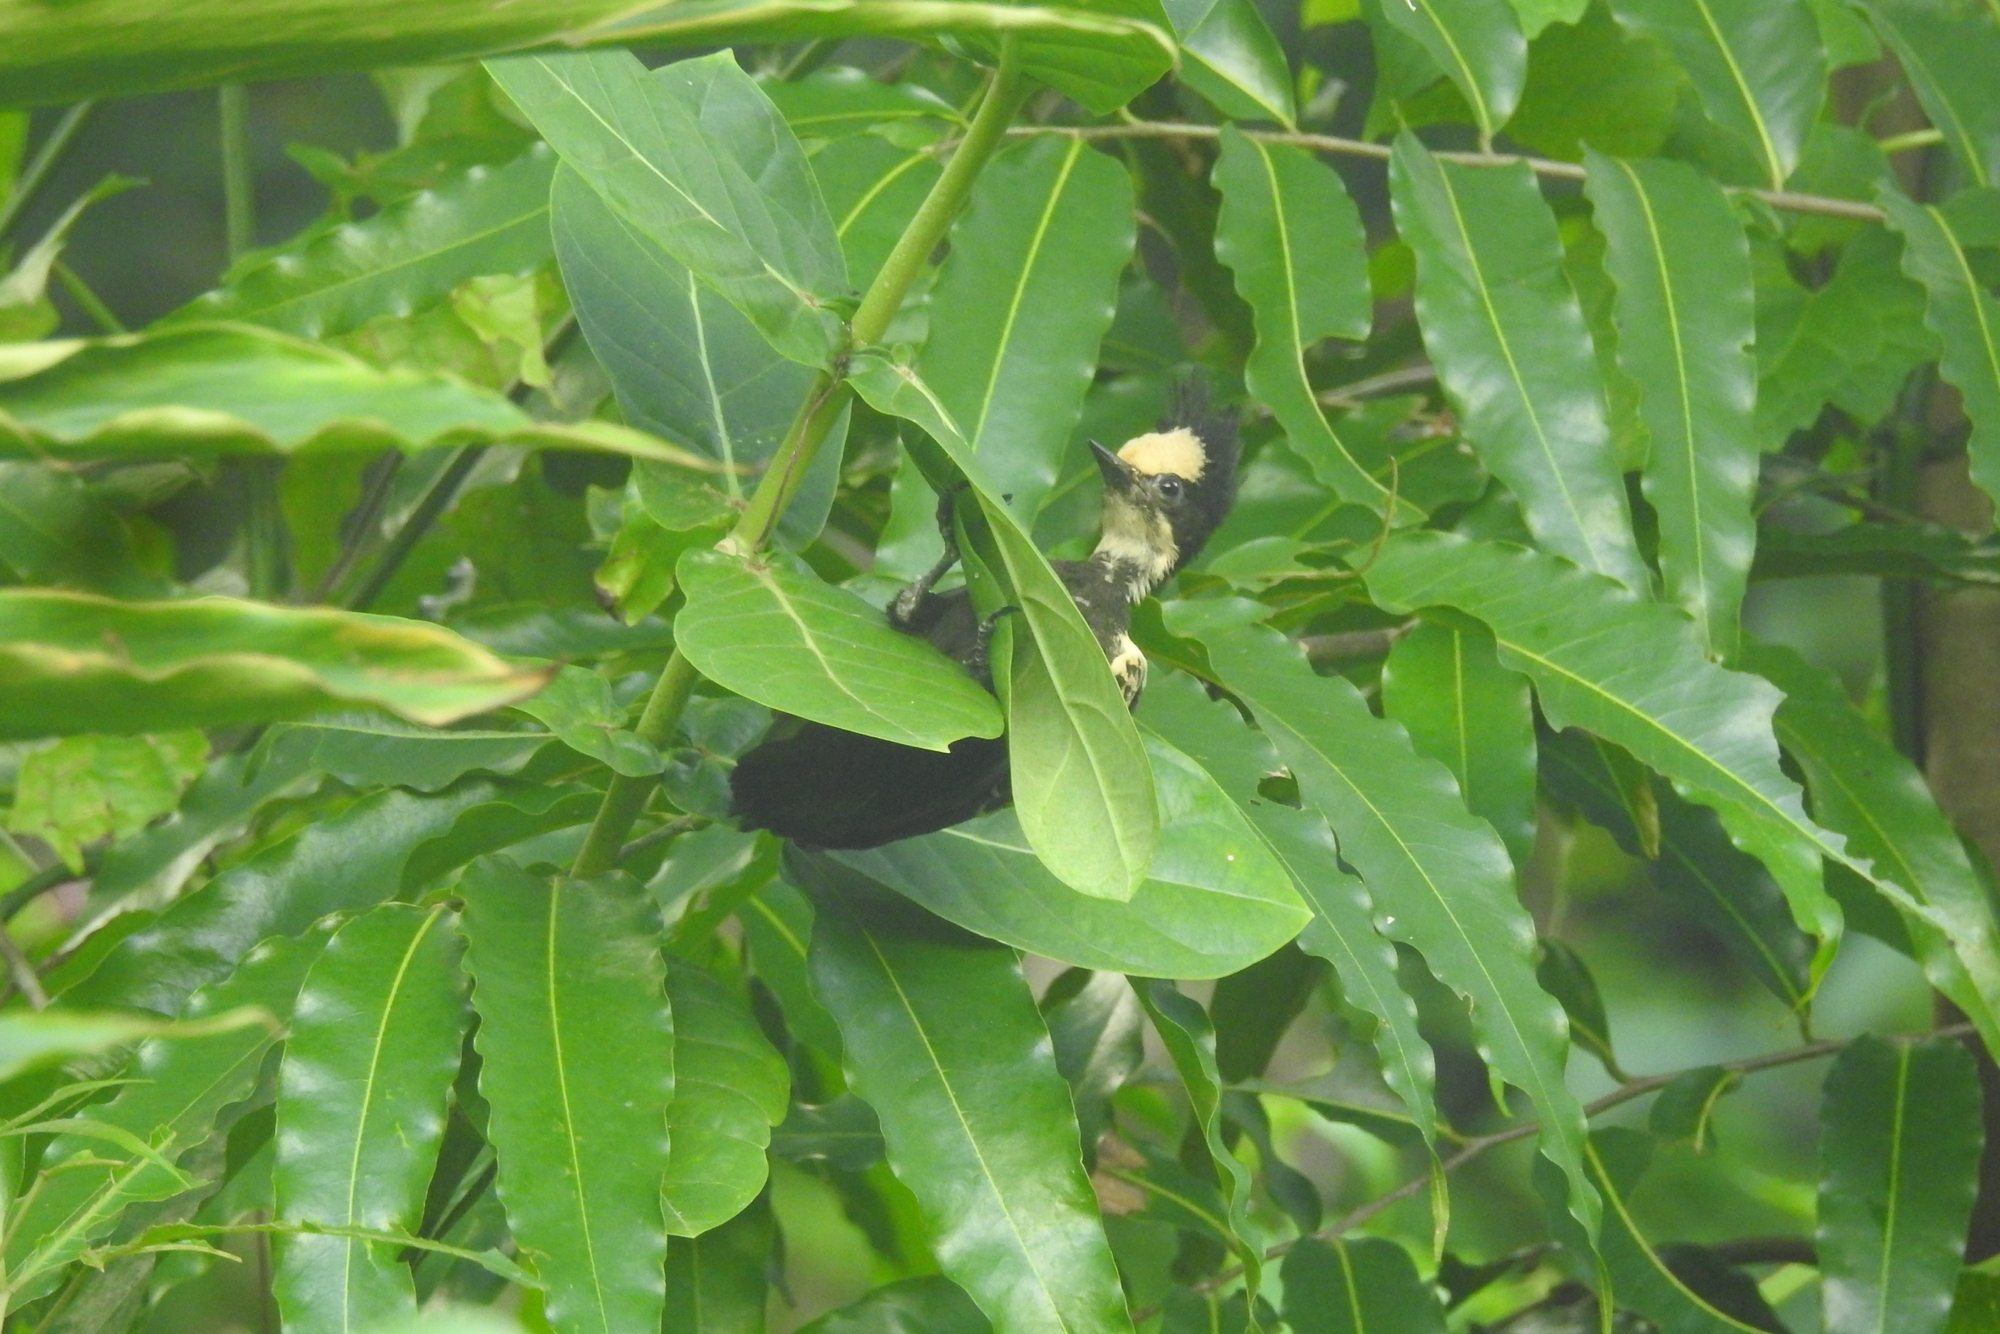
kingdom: Animalia
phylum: Chordata
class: Aves
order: Piciformes
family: Picidae
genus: Hemicircus
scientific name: Hemicircus canente
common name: Heart-spotted woodpecker
